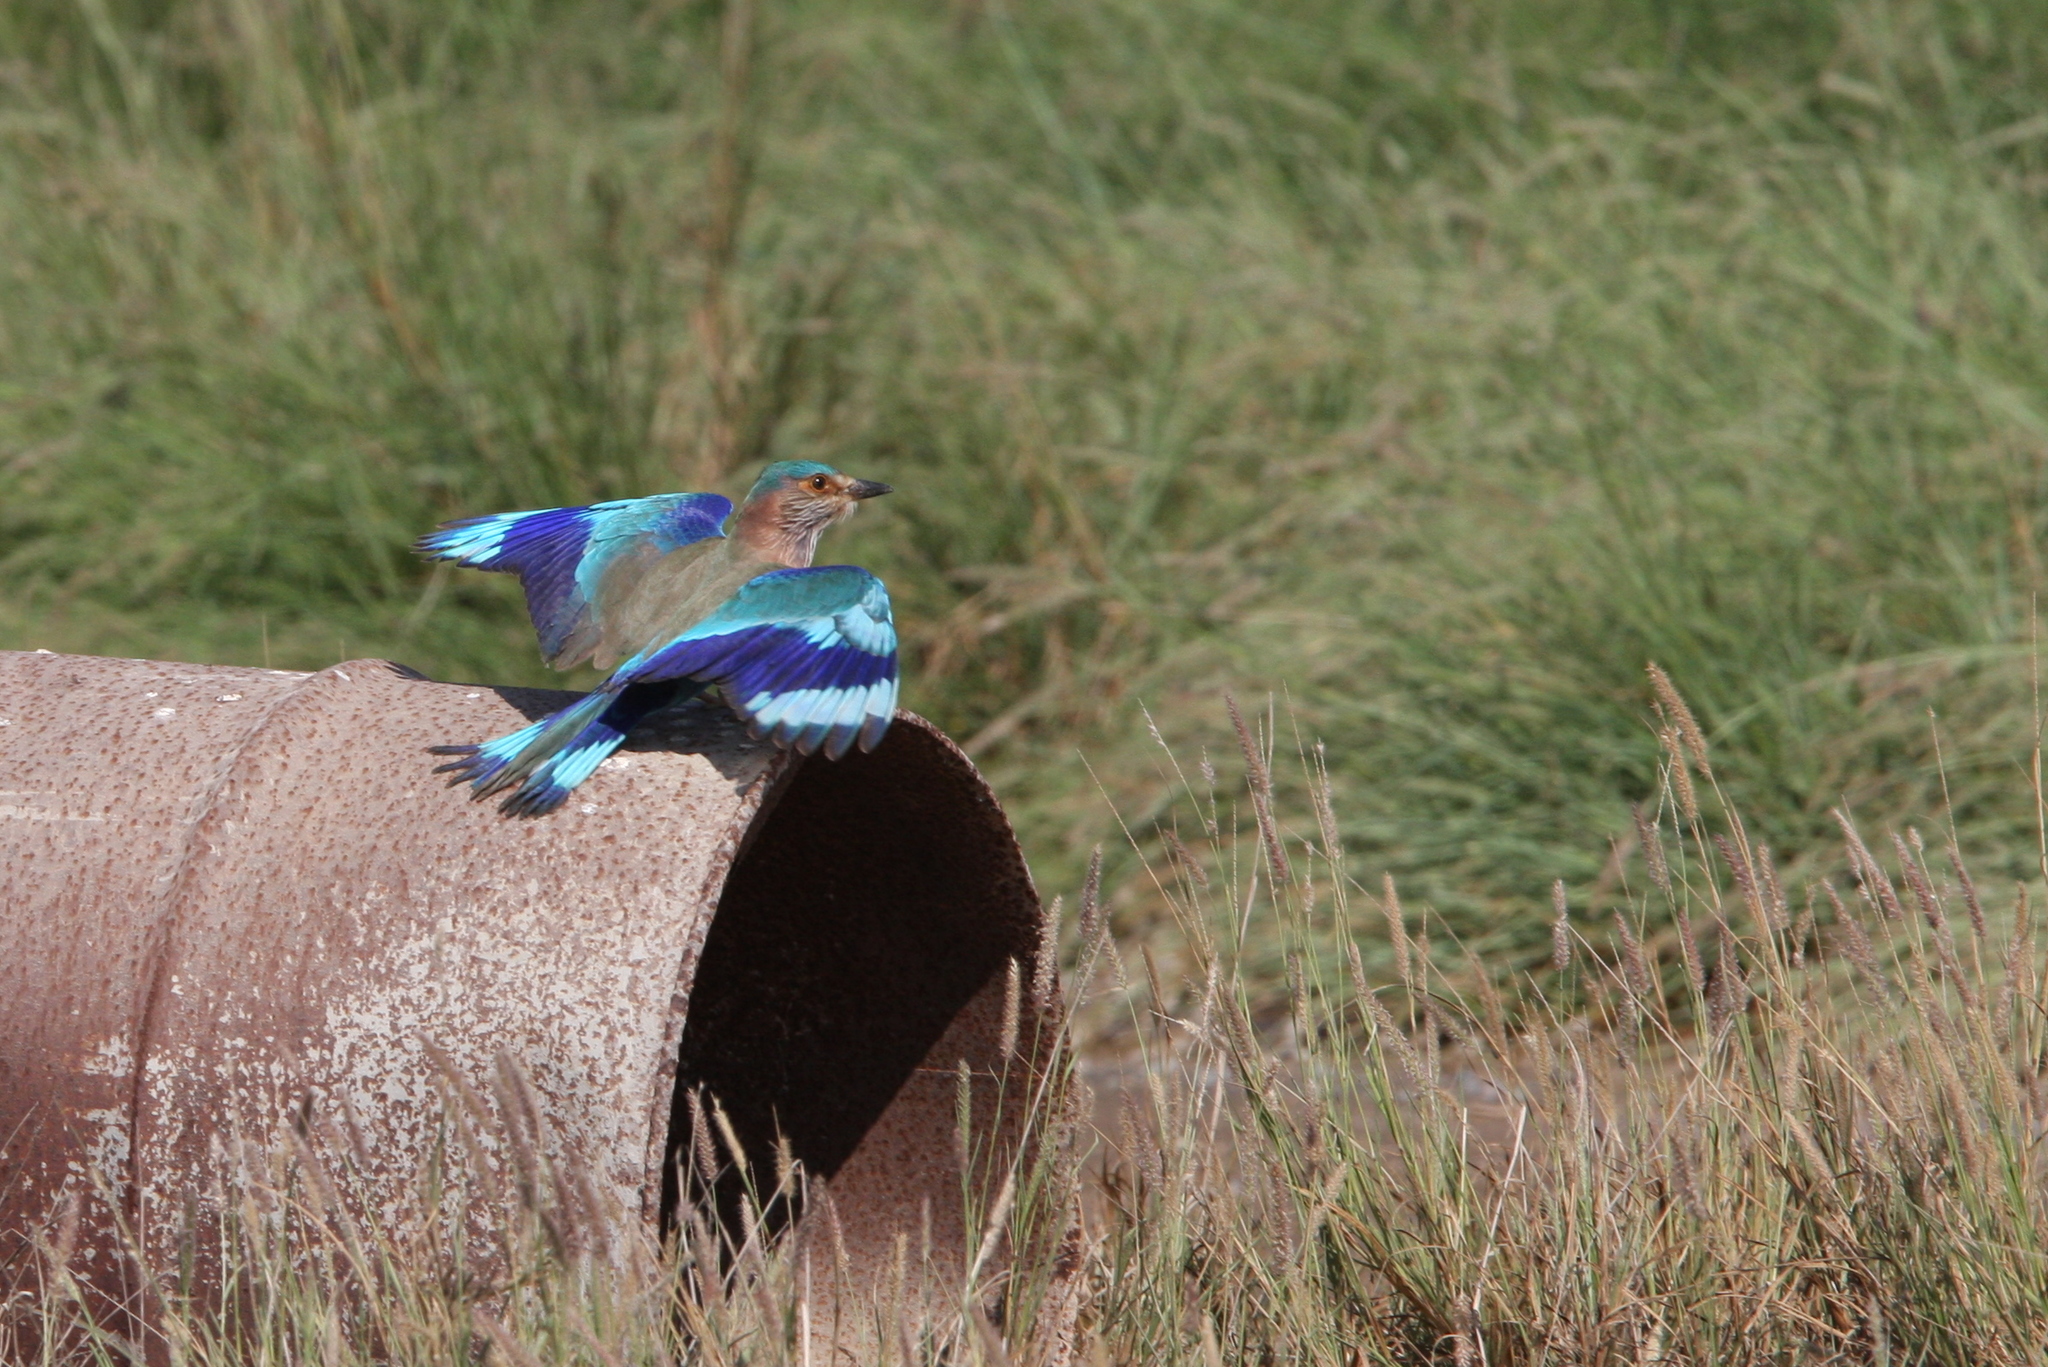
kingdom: Animalia
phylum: Chordata
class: Aves
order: Coraciiformes
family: Coraciidae
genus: Coracias
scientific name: Coracias benghalensis
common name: Indian roller
